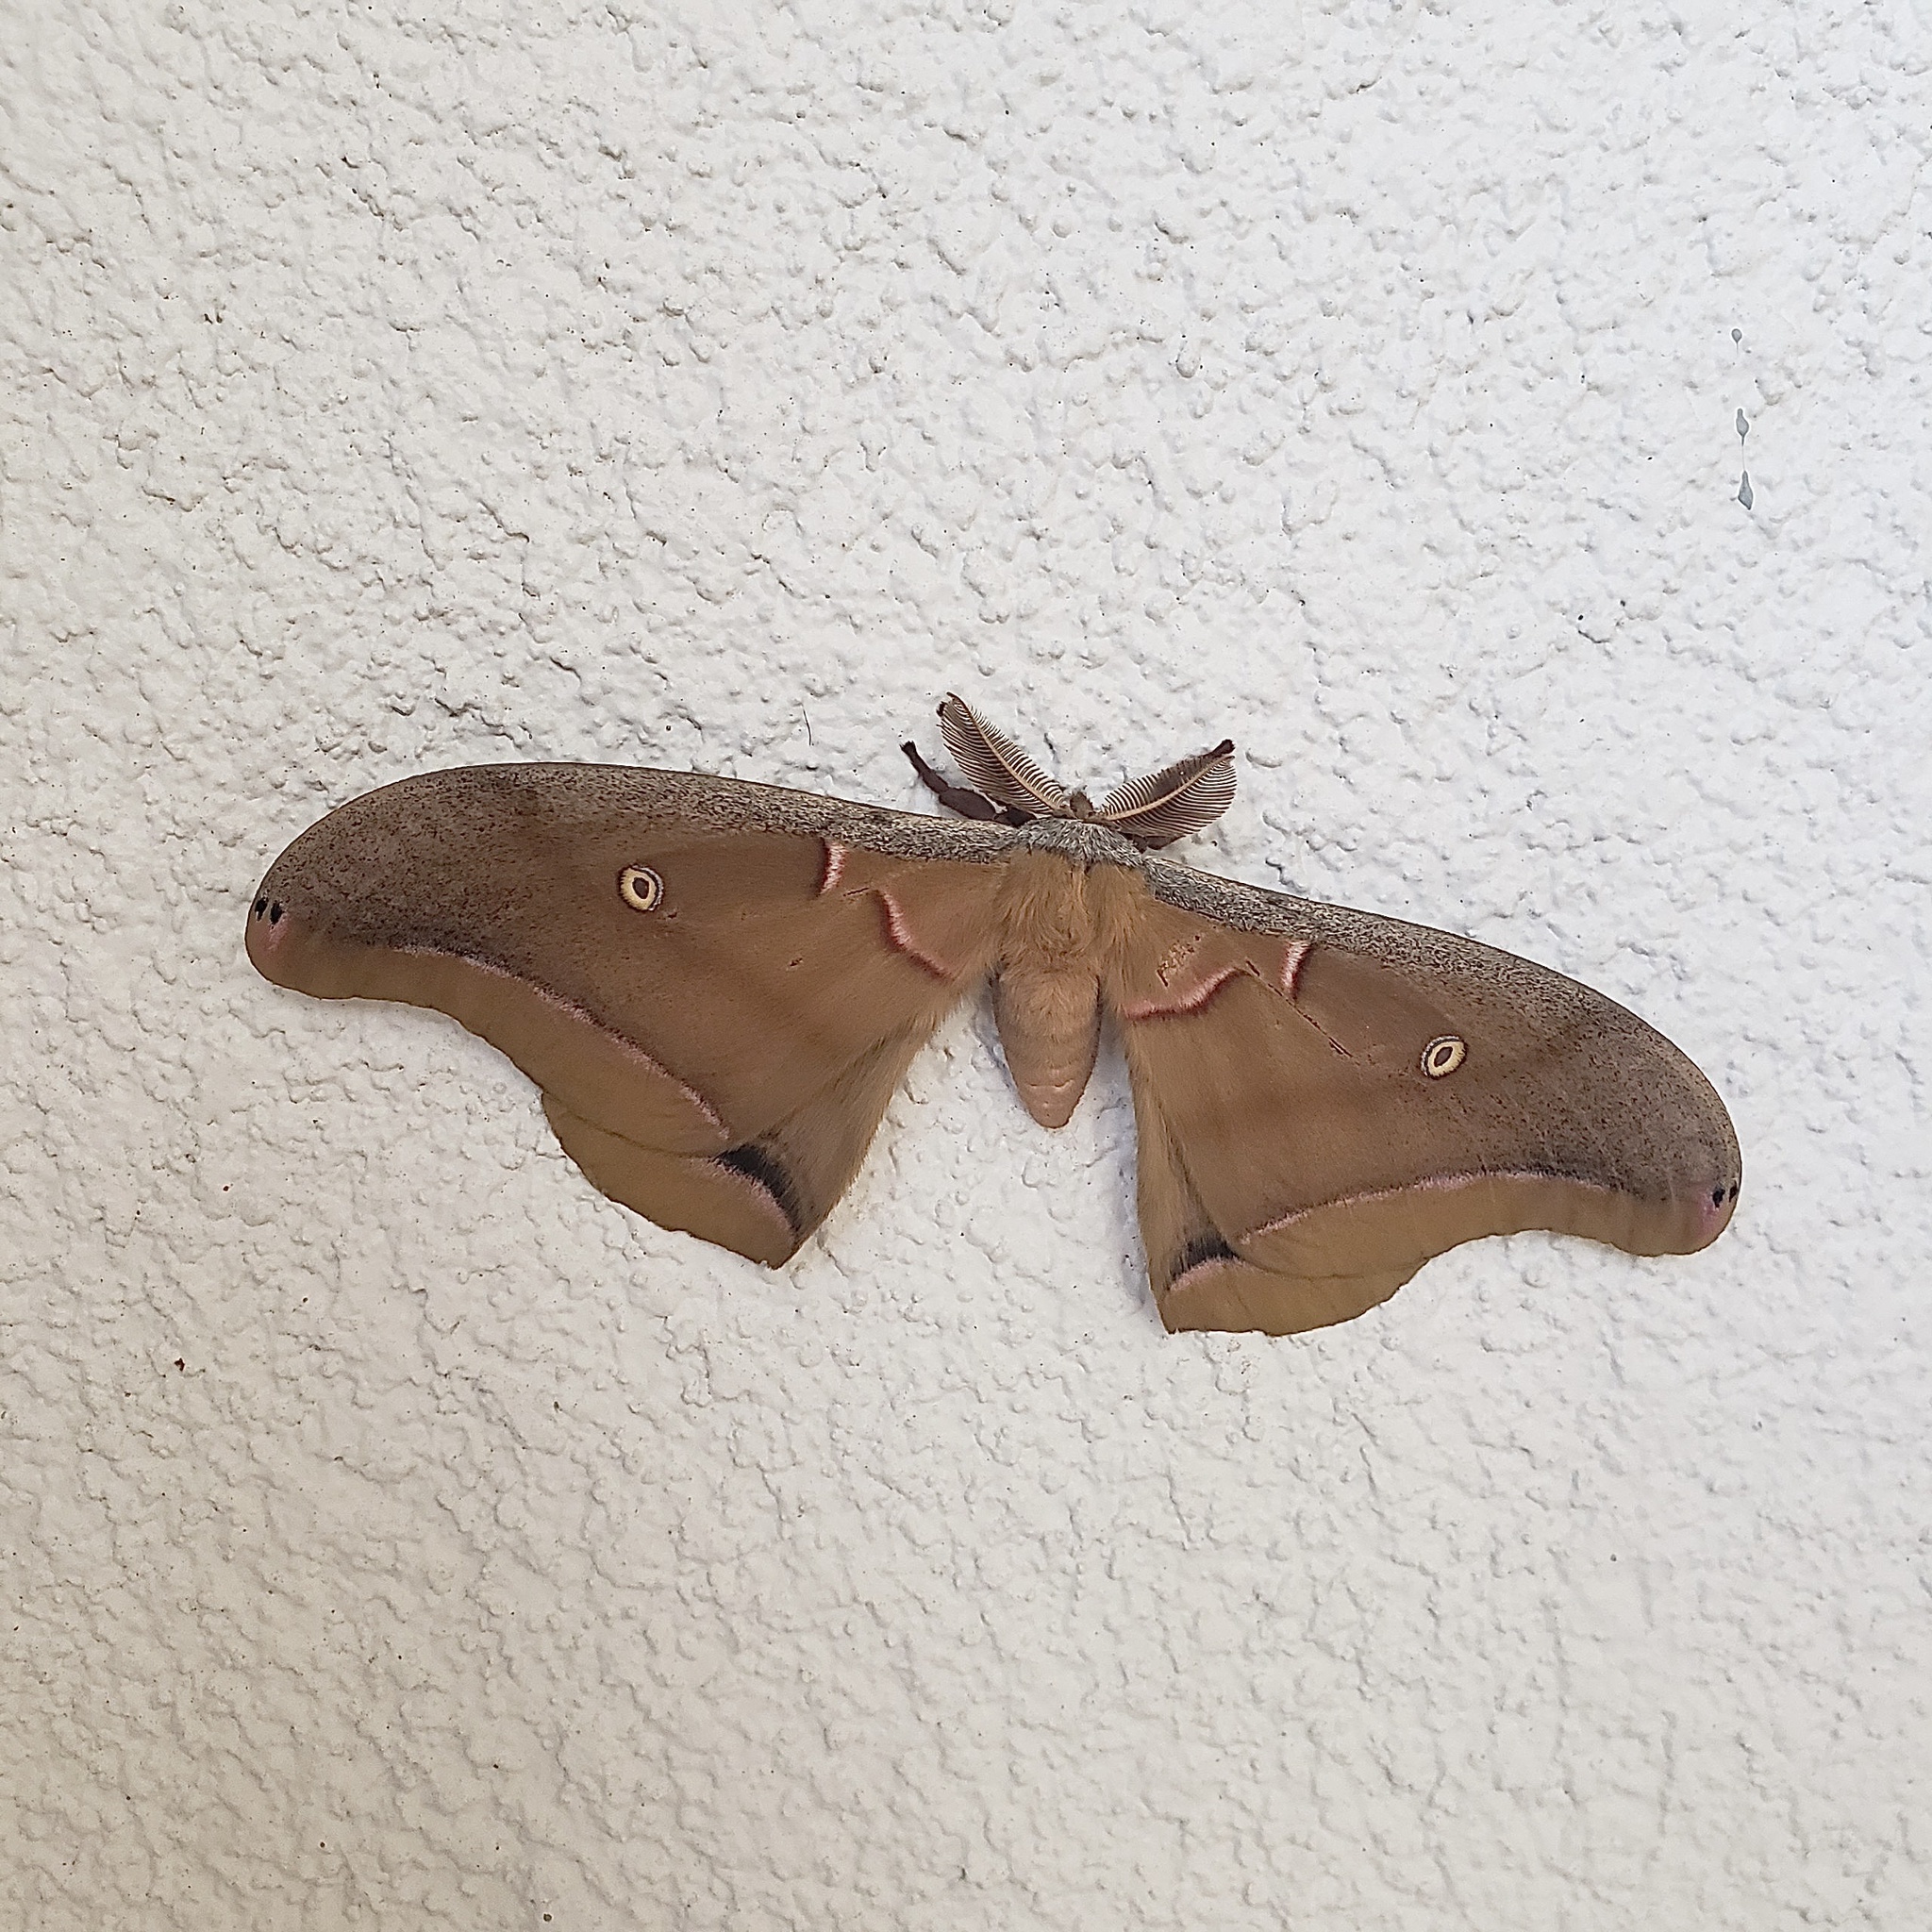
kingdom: Animalia
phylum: Arthropoda
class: Insecta
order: Lepidoptera
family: Saturniidae
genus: Antheraea
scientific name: Antheraea polyphemus
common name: Polyphemus moth
